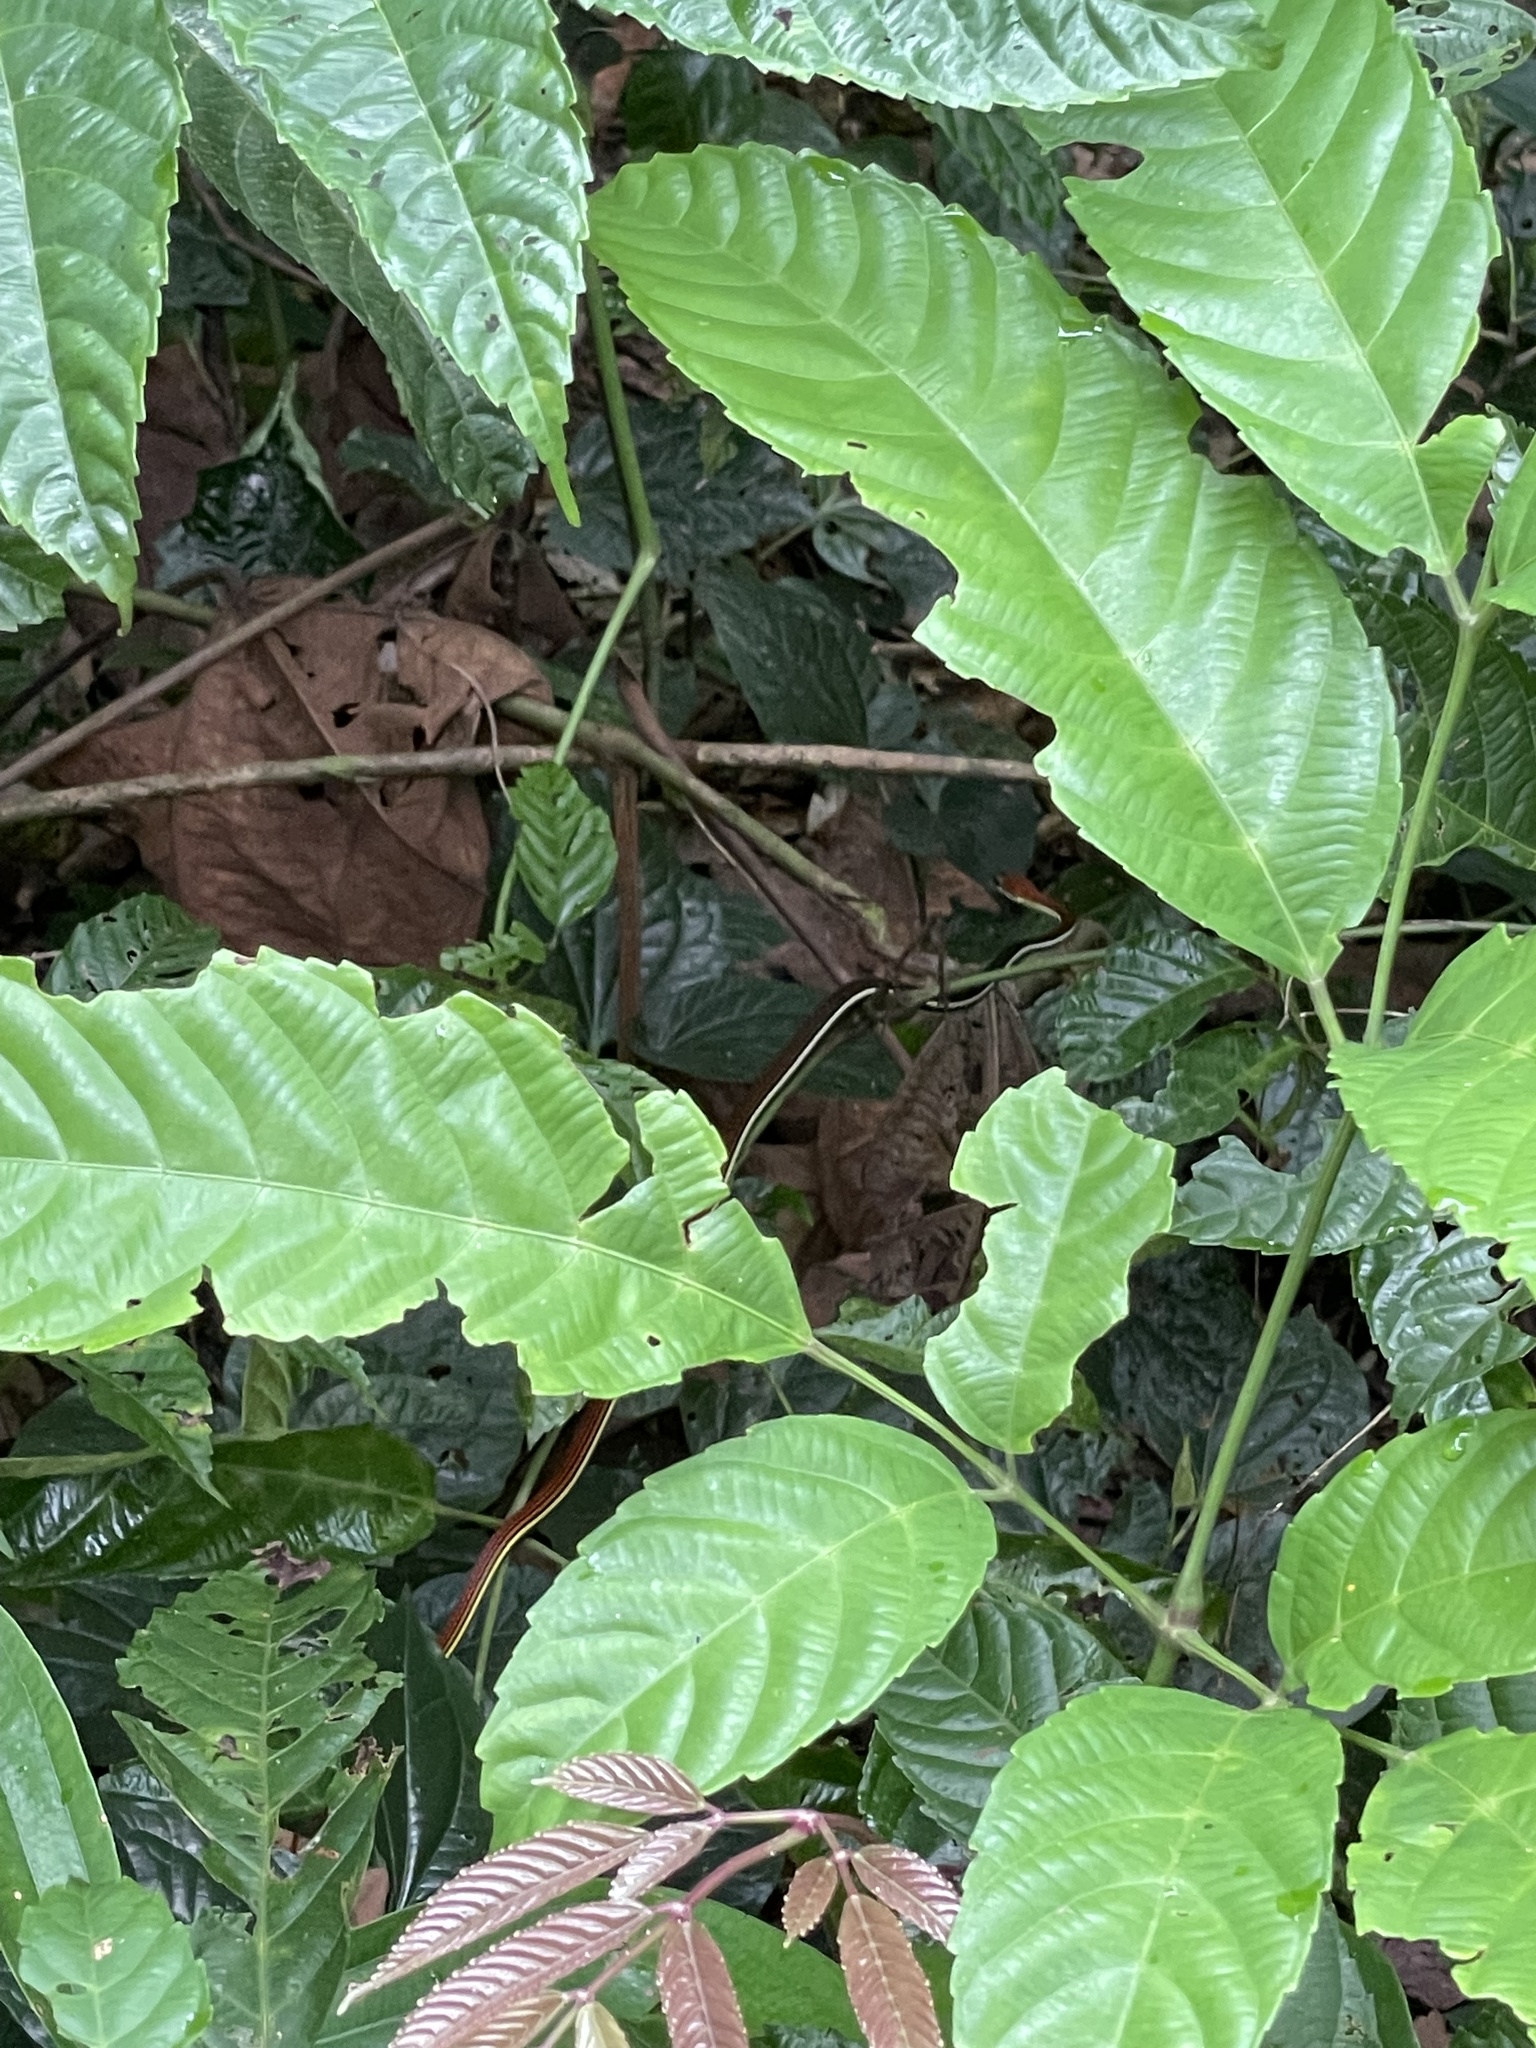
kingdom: Animalia
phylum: Chordata
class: Squamata
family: Colubridae
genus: Dendrelaphis
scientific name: Dendrelaphis caudolineatus
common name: Striped bronzeback
